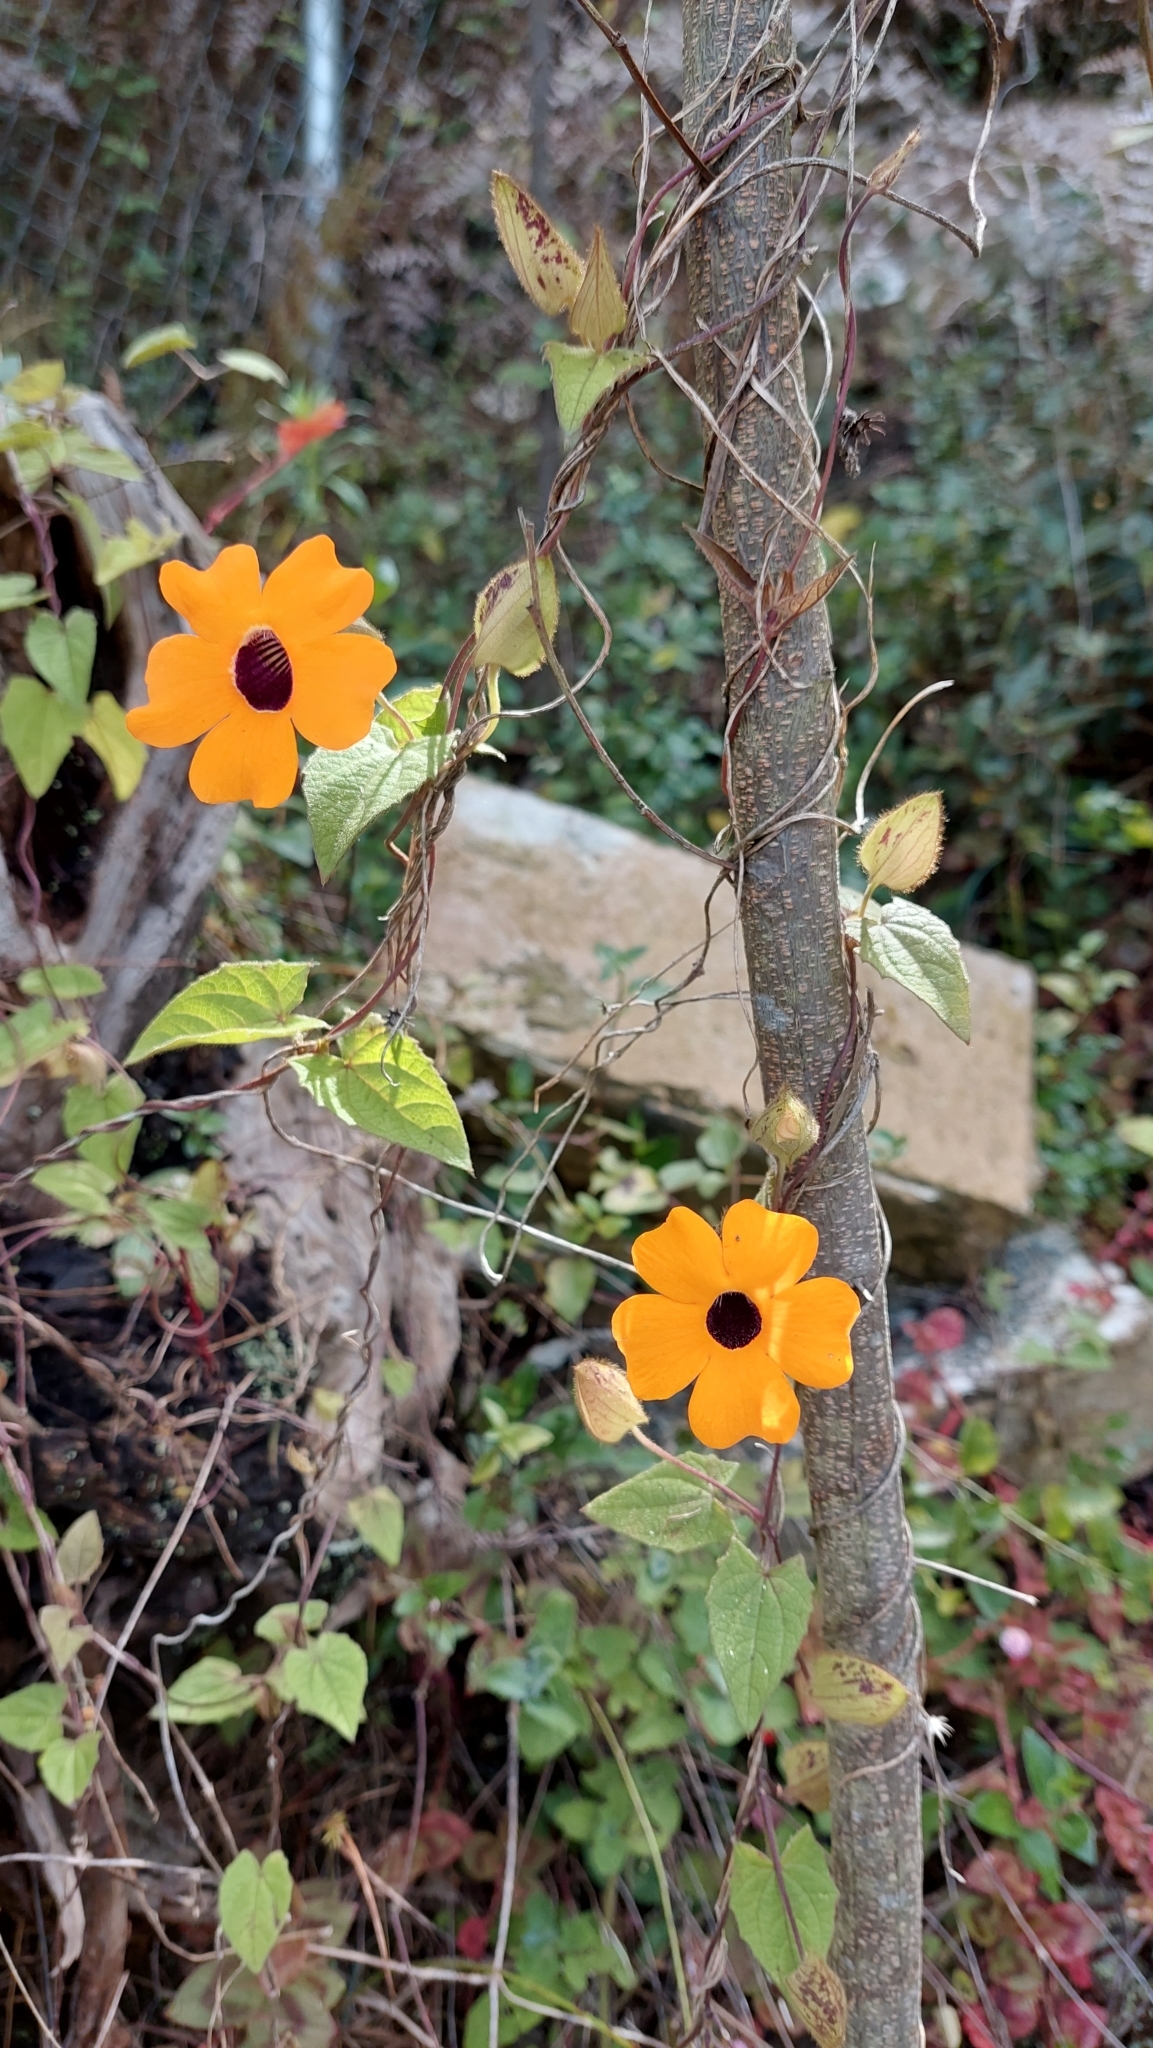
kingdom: Plantae
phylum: Tracheophyta
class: Magnoliopsida
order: Lamiales
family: Acanthaceae
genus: Thunbergia
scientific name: Thunbergia alata
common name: Blackeyed susan vine
